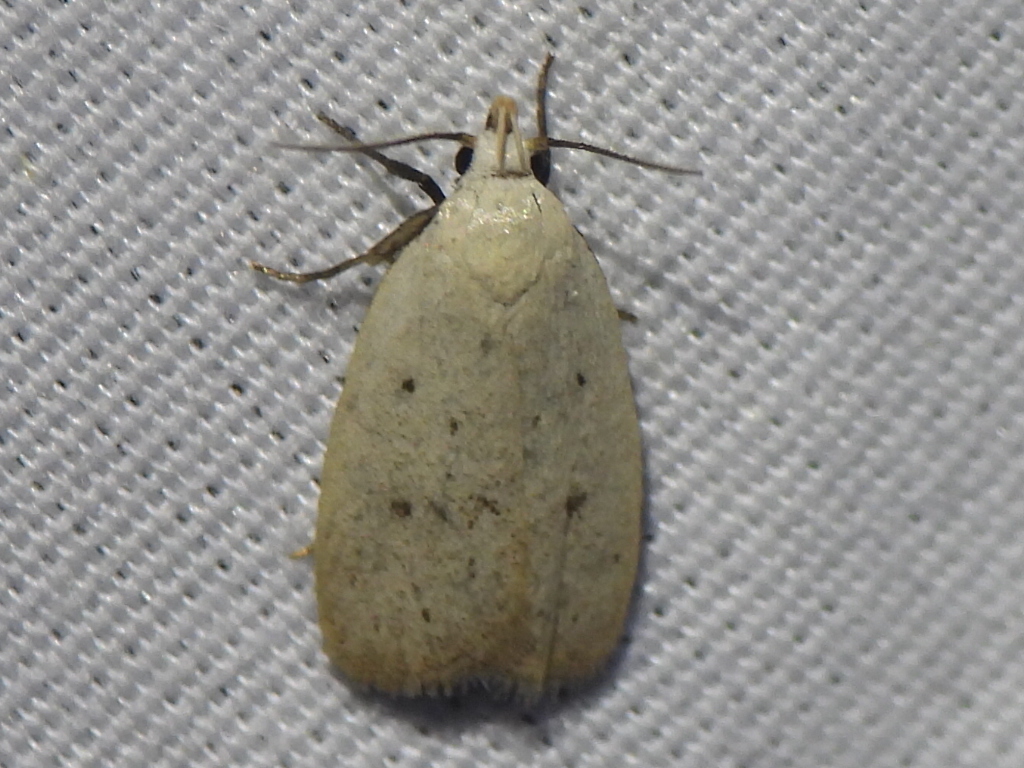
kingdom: Animalia
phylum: Arthropoda
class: Insecta
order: Lepidoptera
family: Oecophoridae
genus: Inga
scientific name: Inga cretacea
